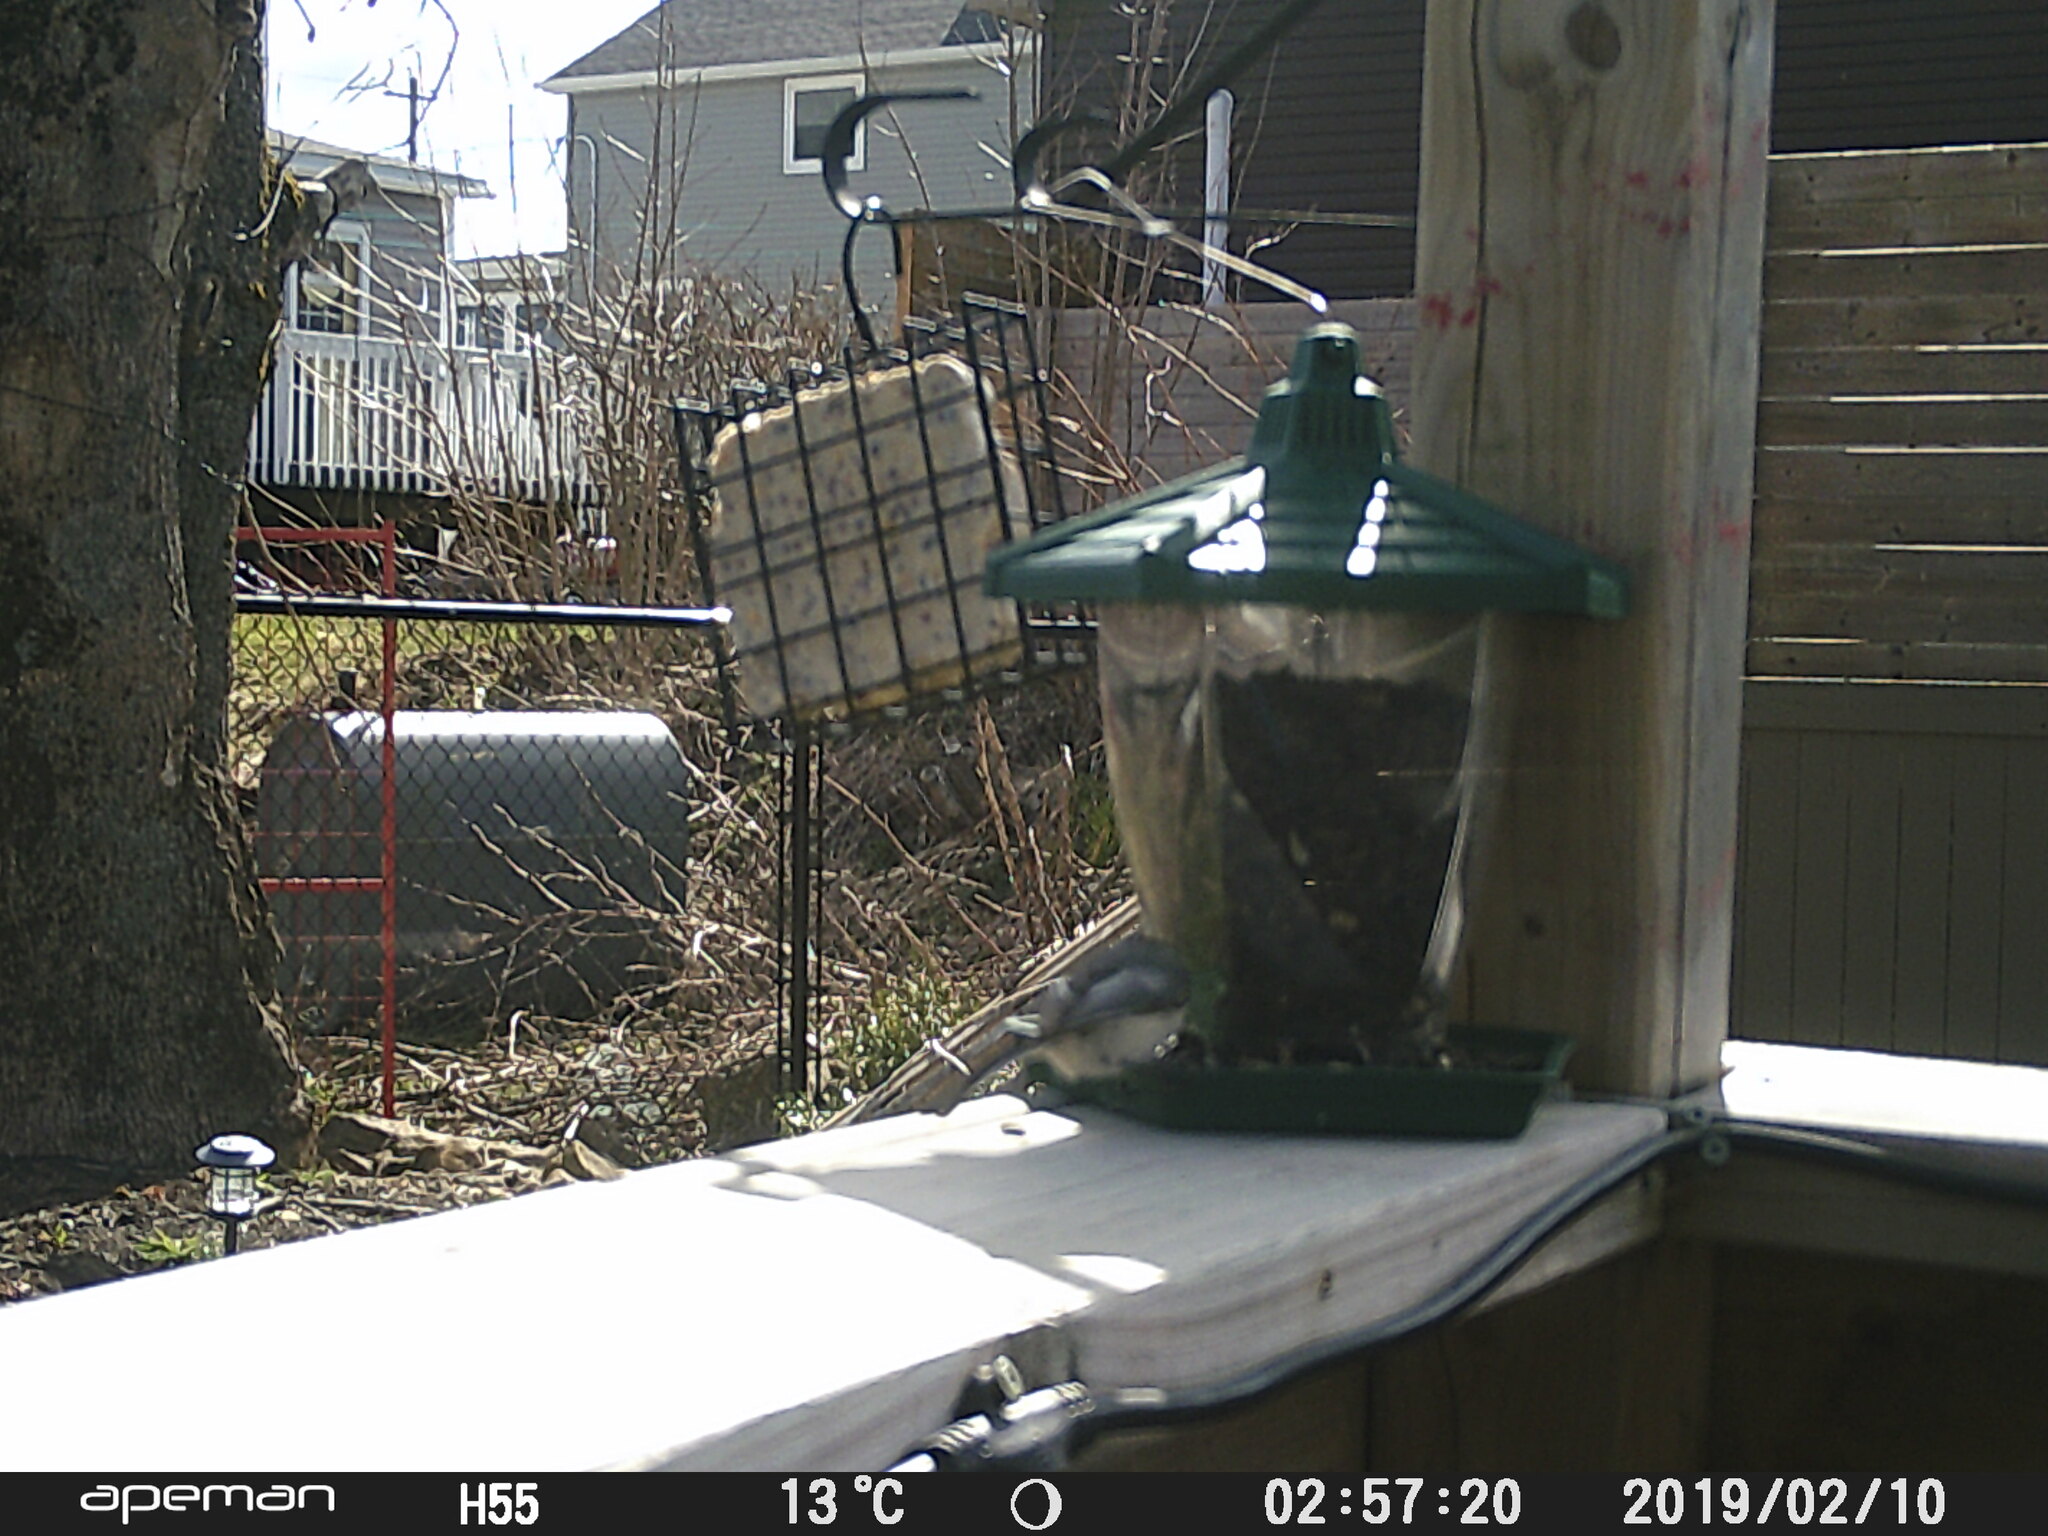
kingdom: Animalia
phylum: Chordata
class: Aves
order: Passeriformes
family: Paridae
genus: Poecile
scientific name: Poecile atricapillus
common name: Black-capped chickadee
